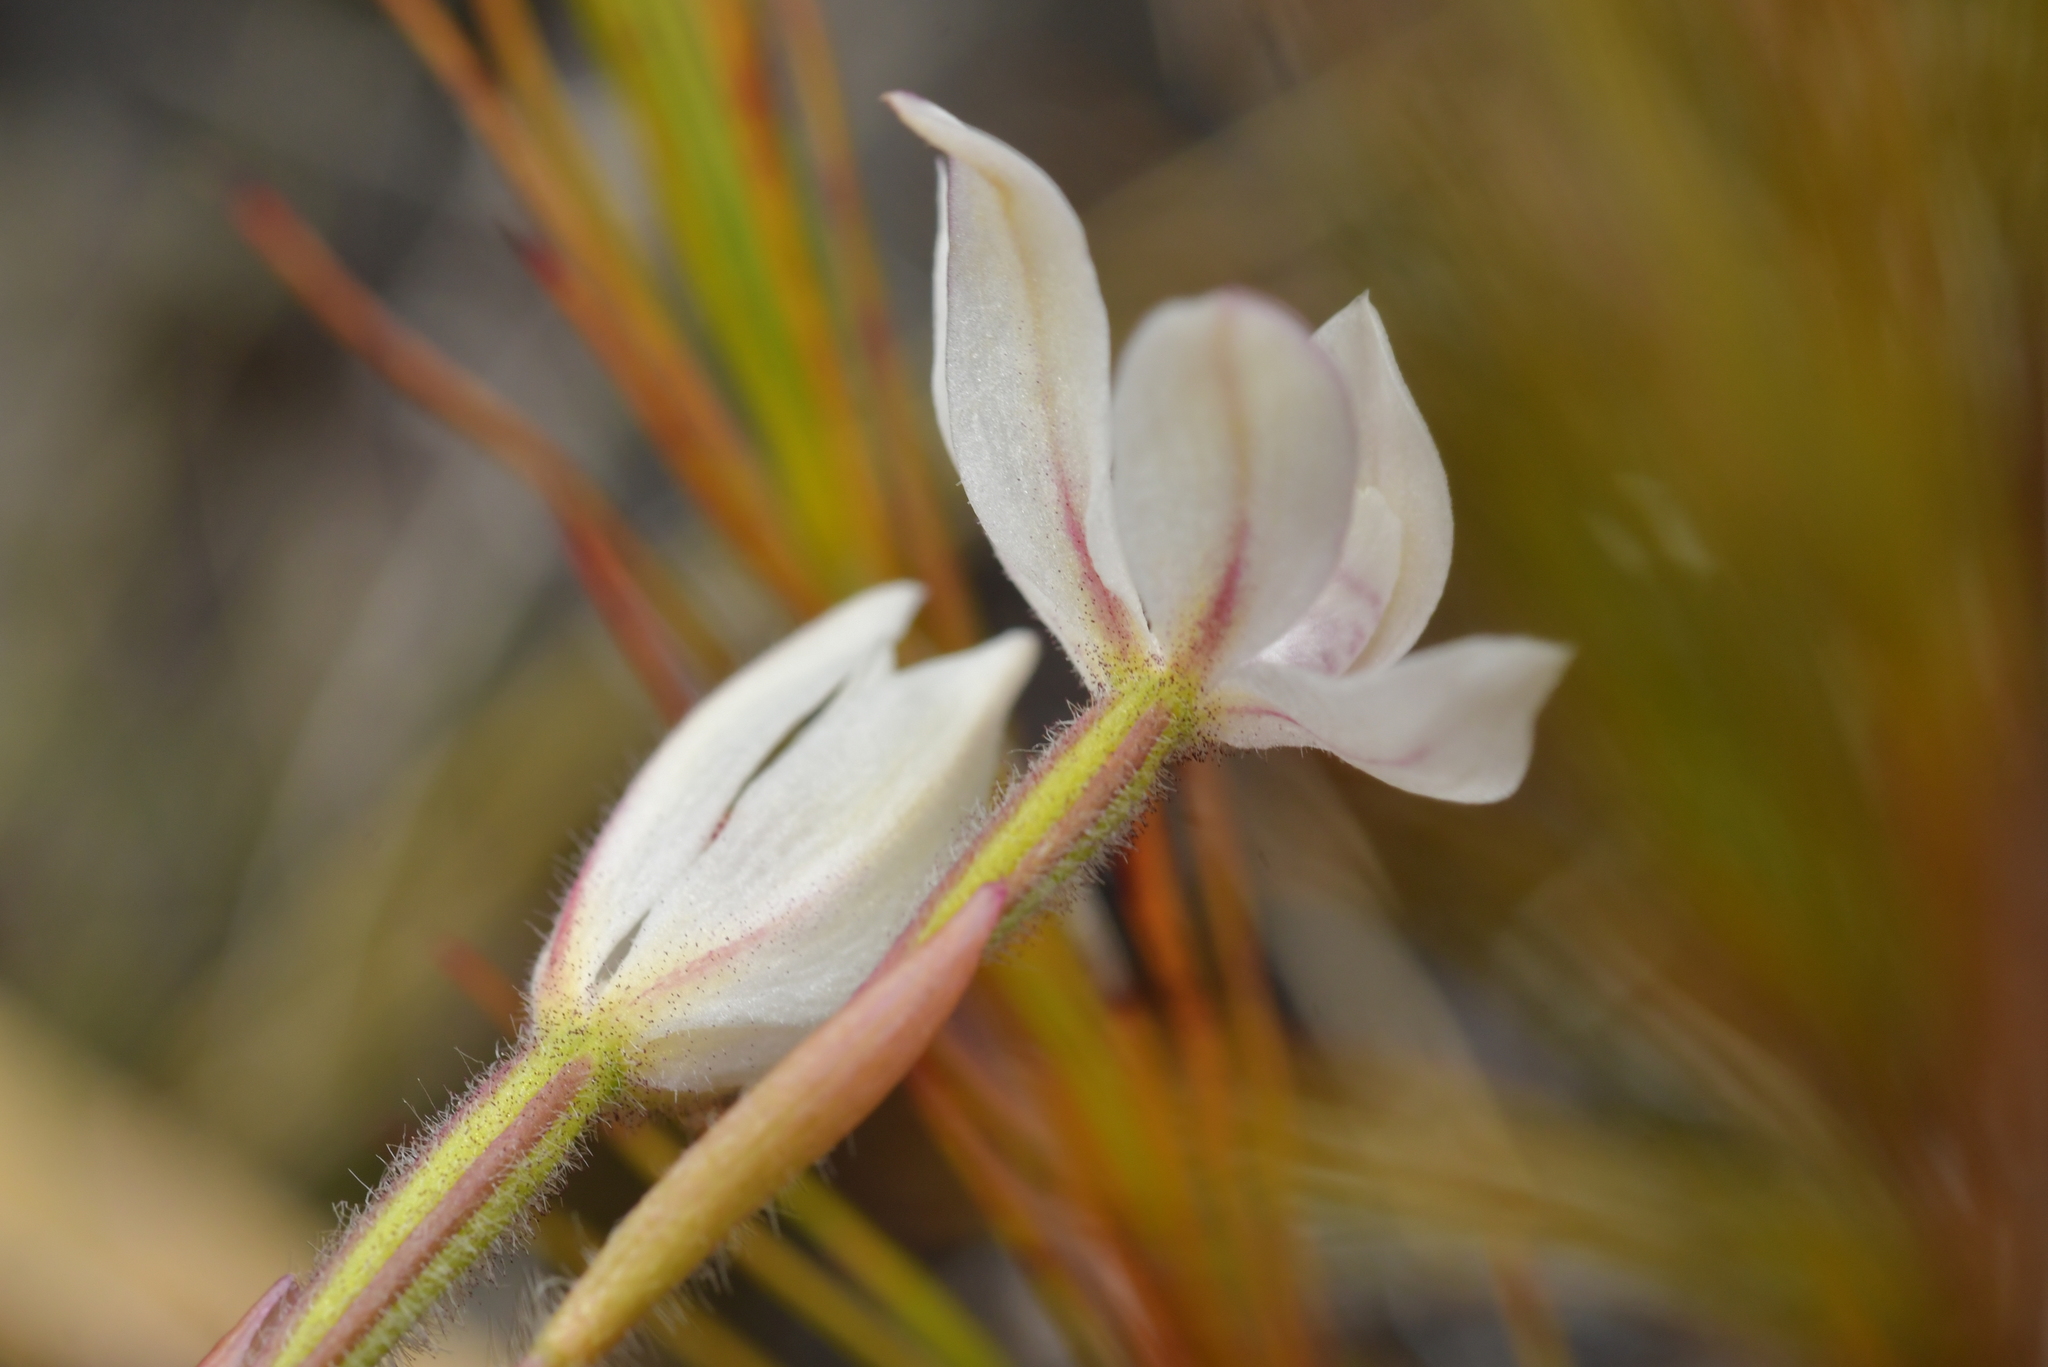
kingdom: Plantae
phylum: Tracheophyta
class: Liliopsida
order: Asparagales
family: Orchidaceae
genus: Caladenia
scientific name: Caladenia lyallii
